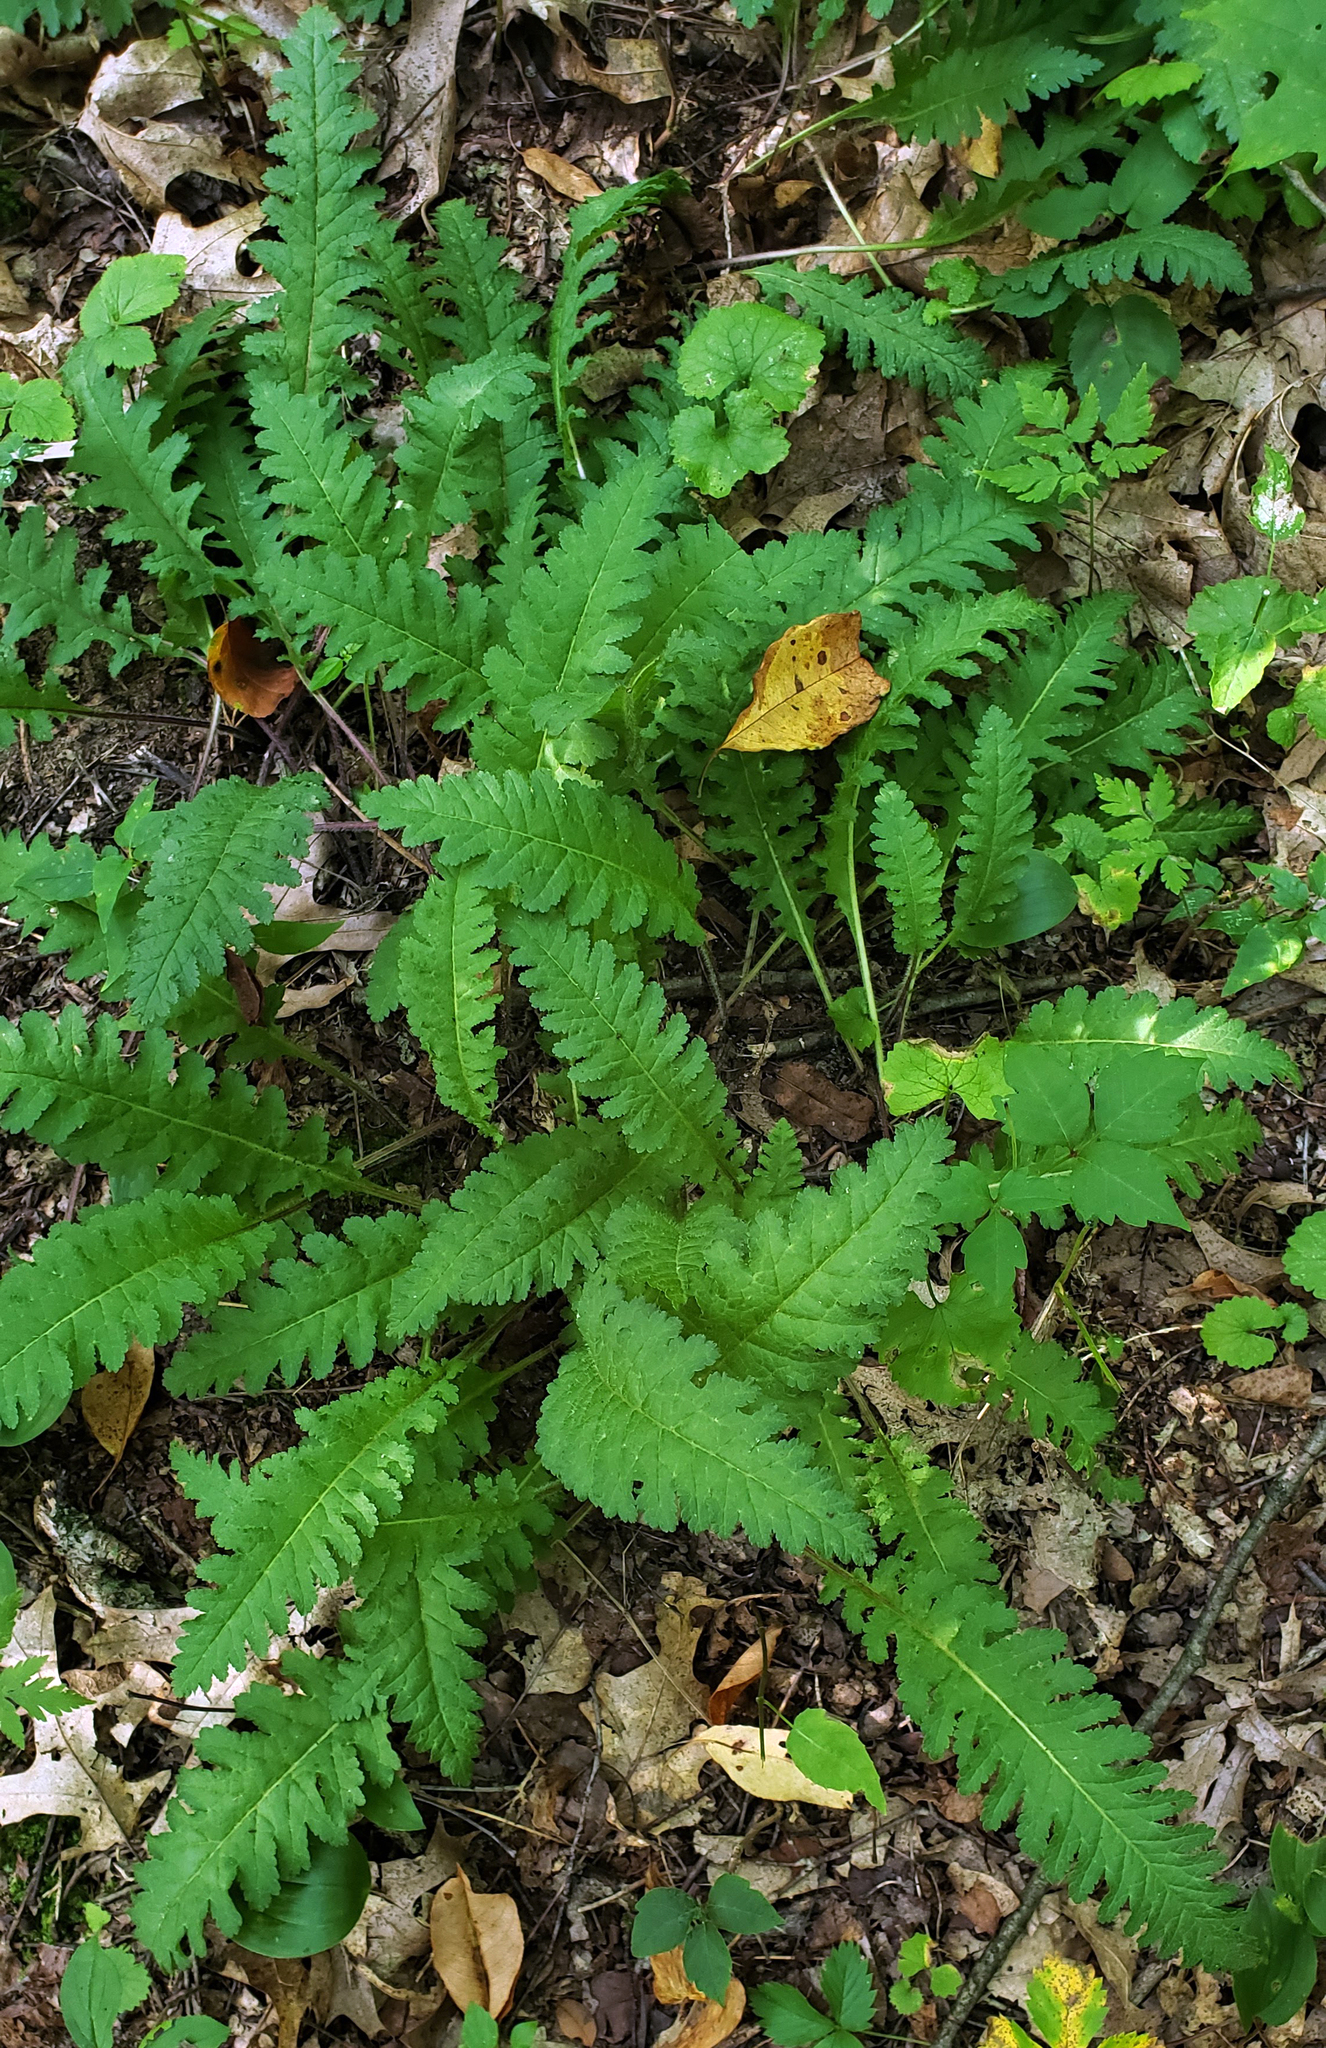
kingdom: Plantae
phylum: Tracheophyta
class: Magnoliopsida
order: Lamiales
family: Orobanchaceae
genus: Pedicularis
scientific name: Pedicularis canadensis
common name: Early lousewort
